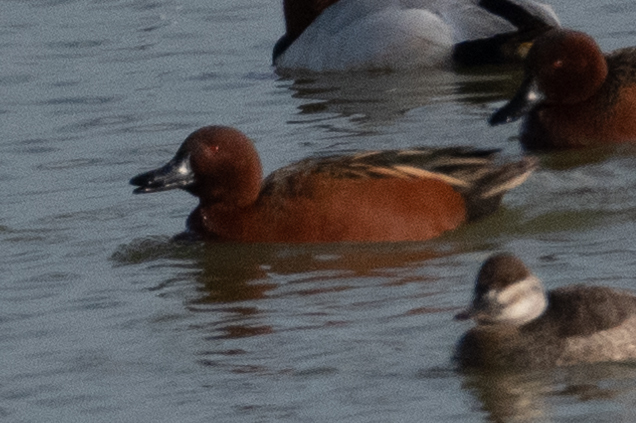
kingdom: Animalia
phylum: Chordata
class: Aves
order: Anseriformes
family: Anatidae
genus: Spatula
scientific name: Spatula cyanoptera
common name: Cinnamon teal
